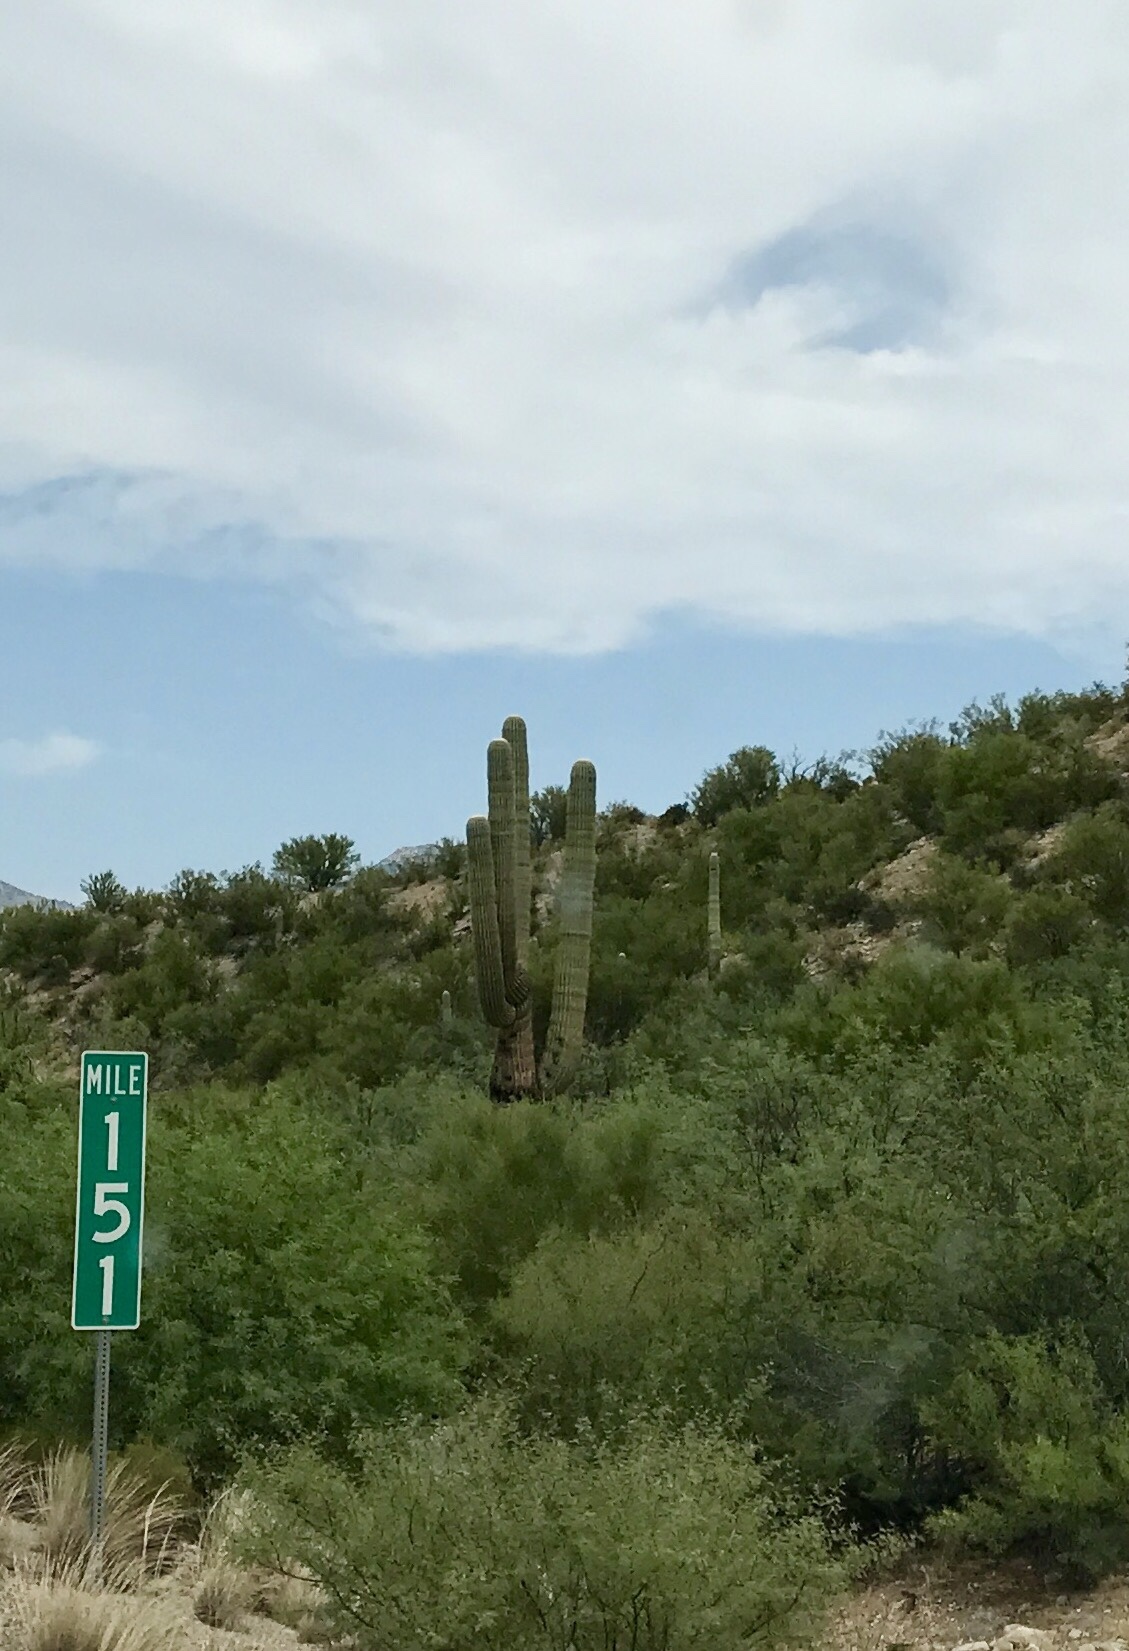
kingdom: Plantae
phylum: Tracheophyta
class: Magnoliopsida
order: Caryophyllales
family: Cactaceae
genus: Carnegiea
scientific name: Carnegiea gigantea
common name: Saguaro
